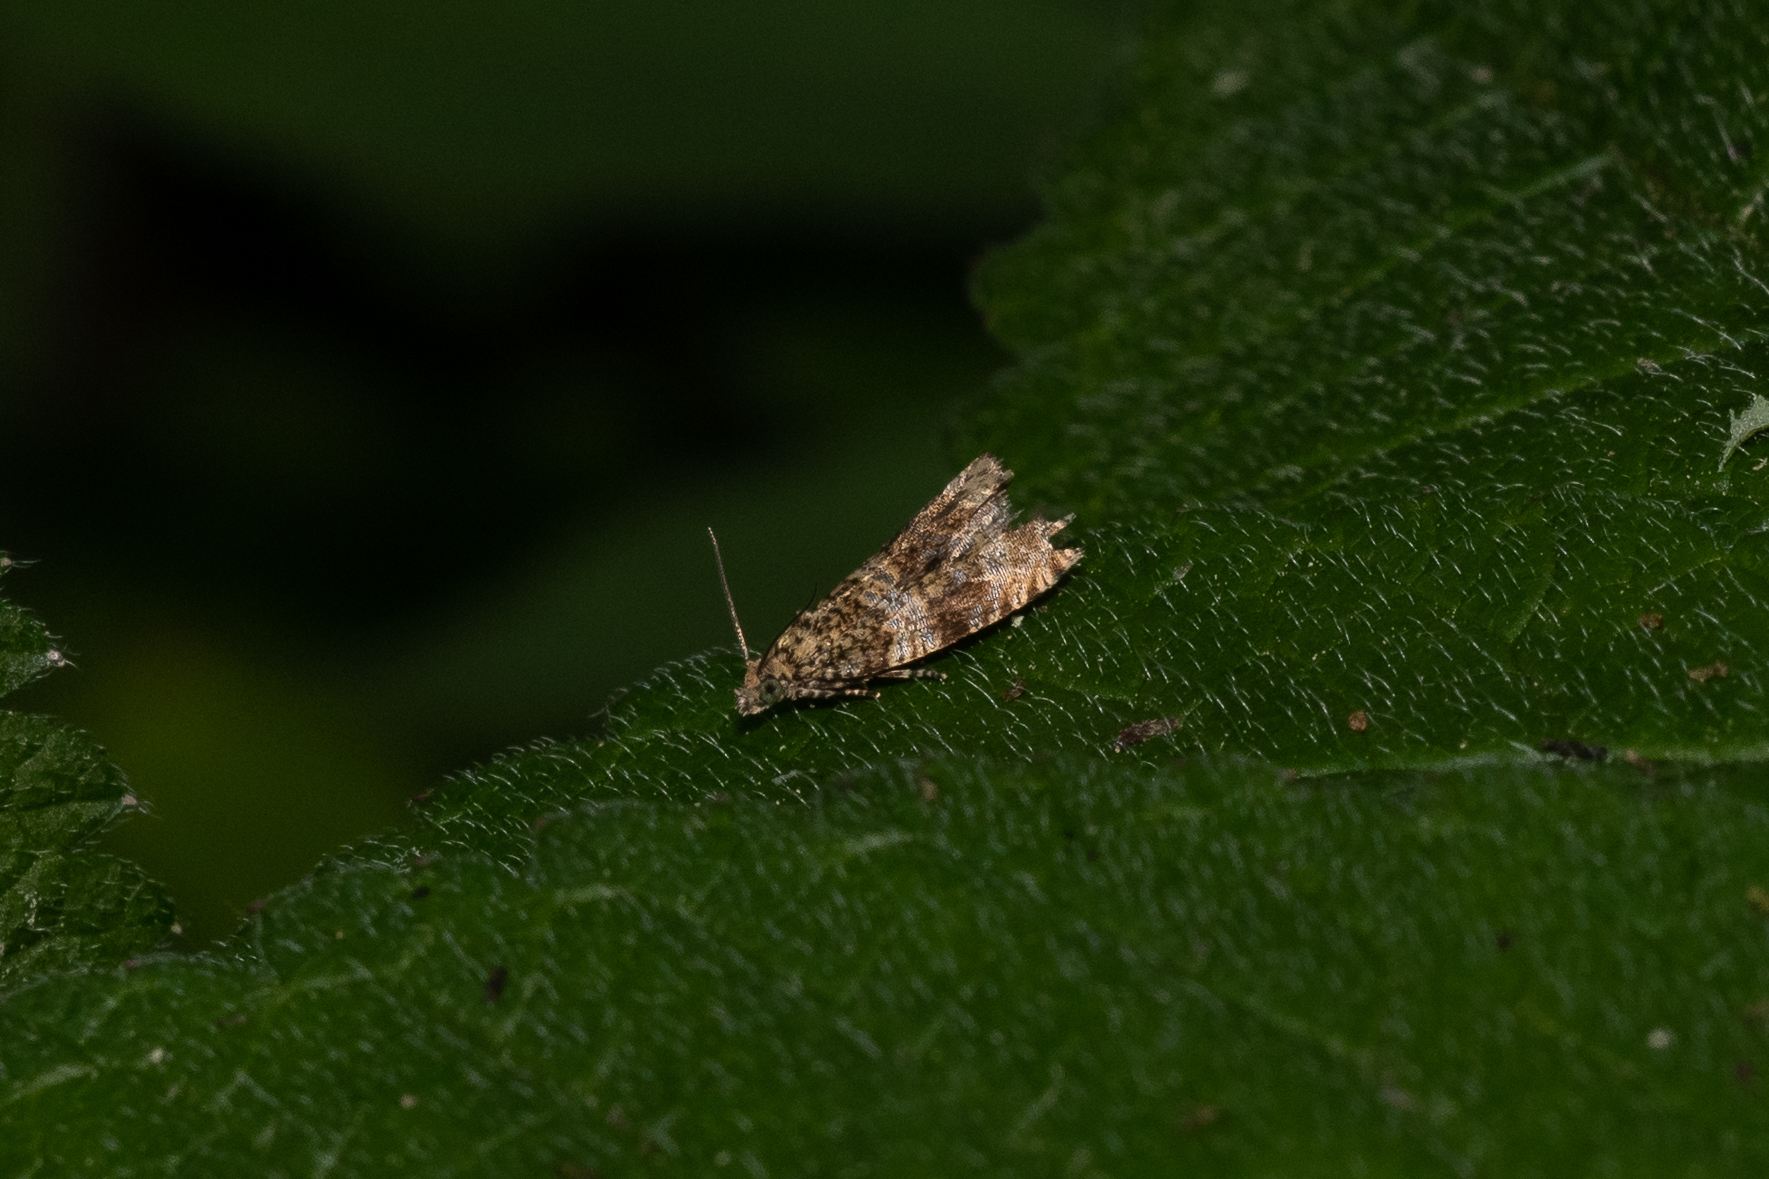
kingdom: Animalia
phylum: Arthropoda
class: Insecta
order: Lepidoptera
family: Tortricidae
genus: Syricoris
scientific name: Syricoris lacunana
